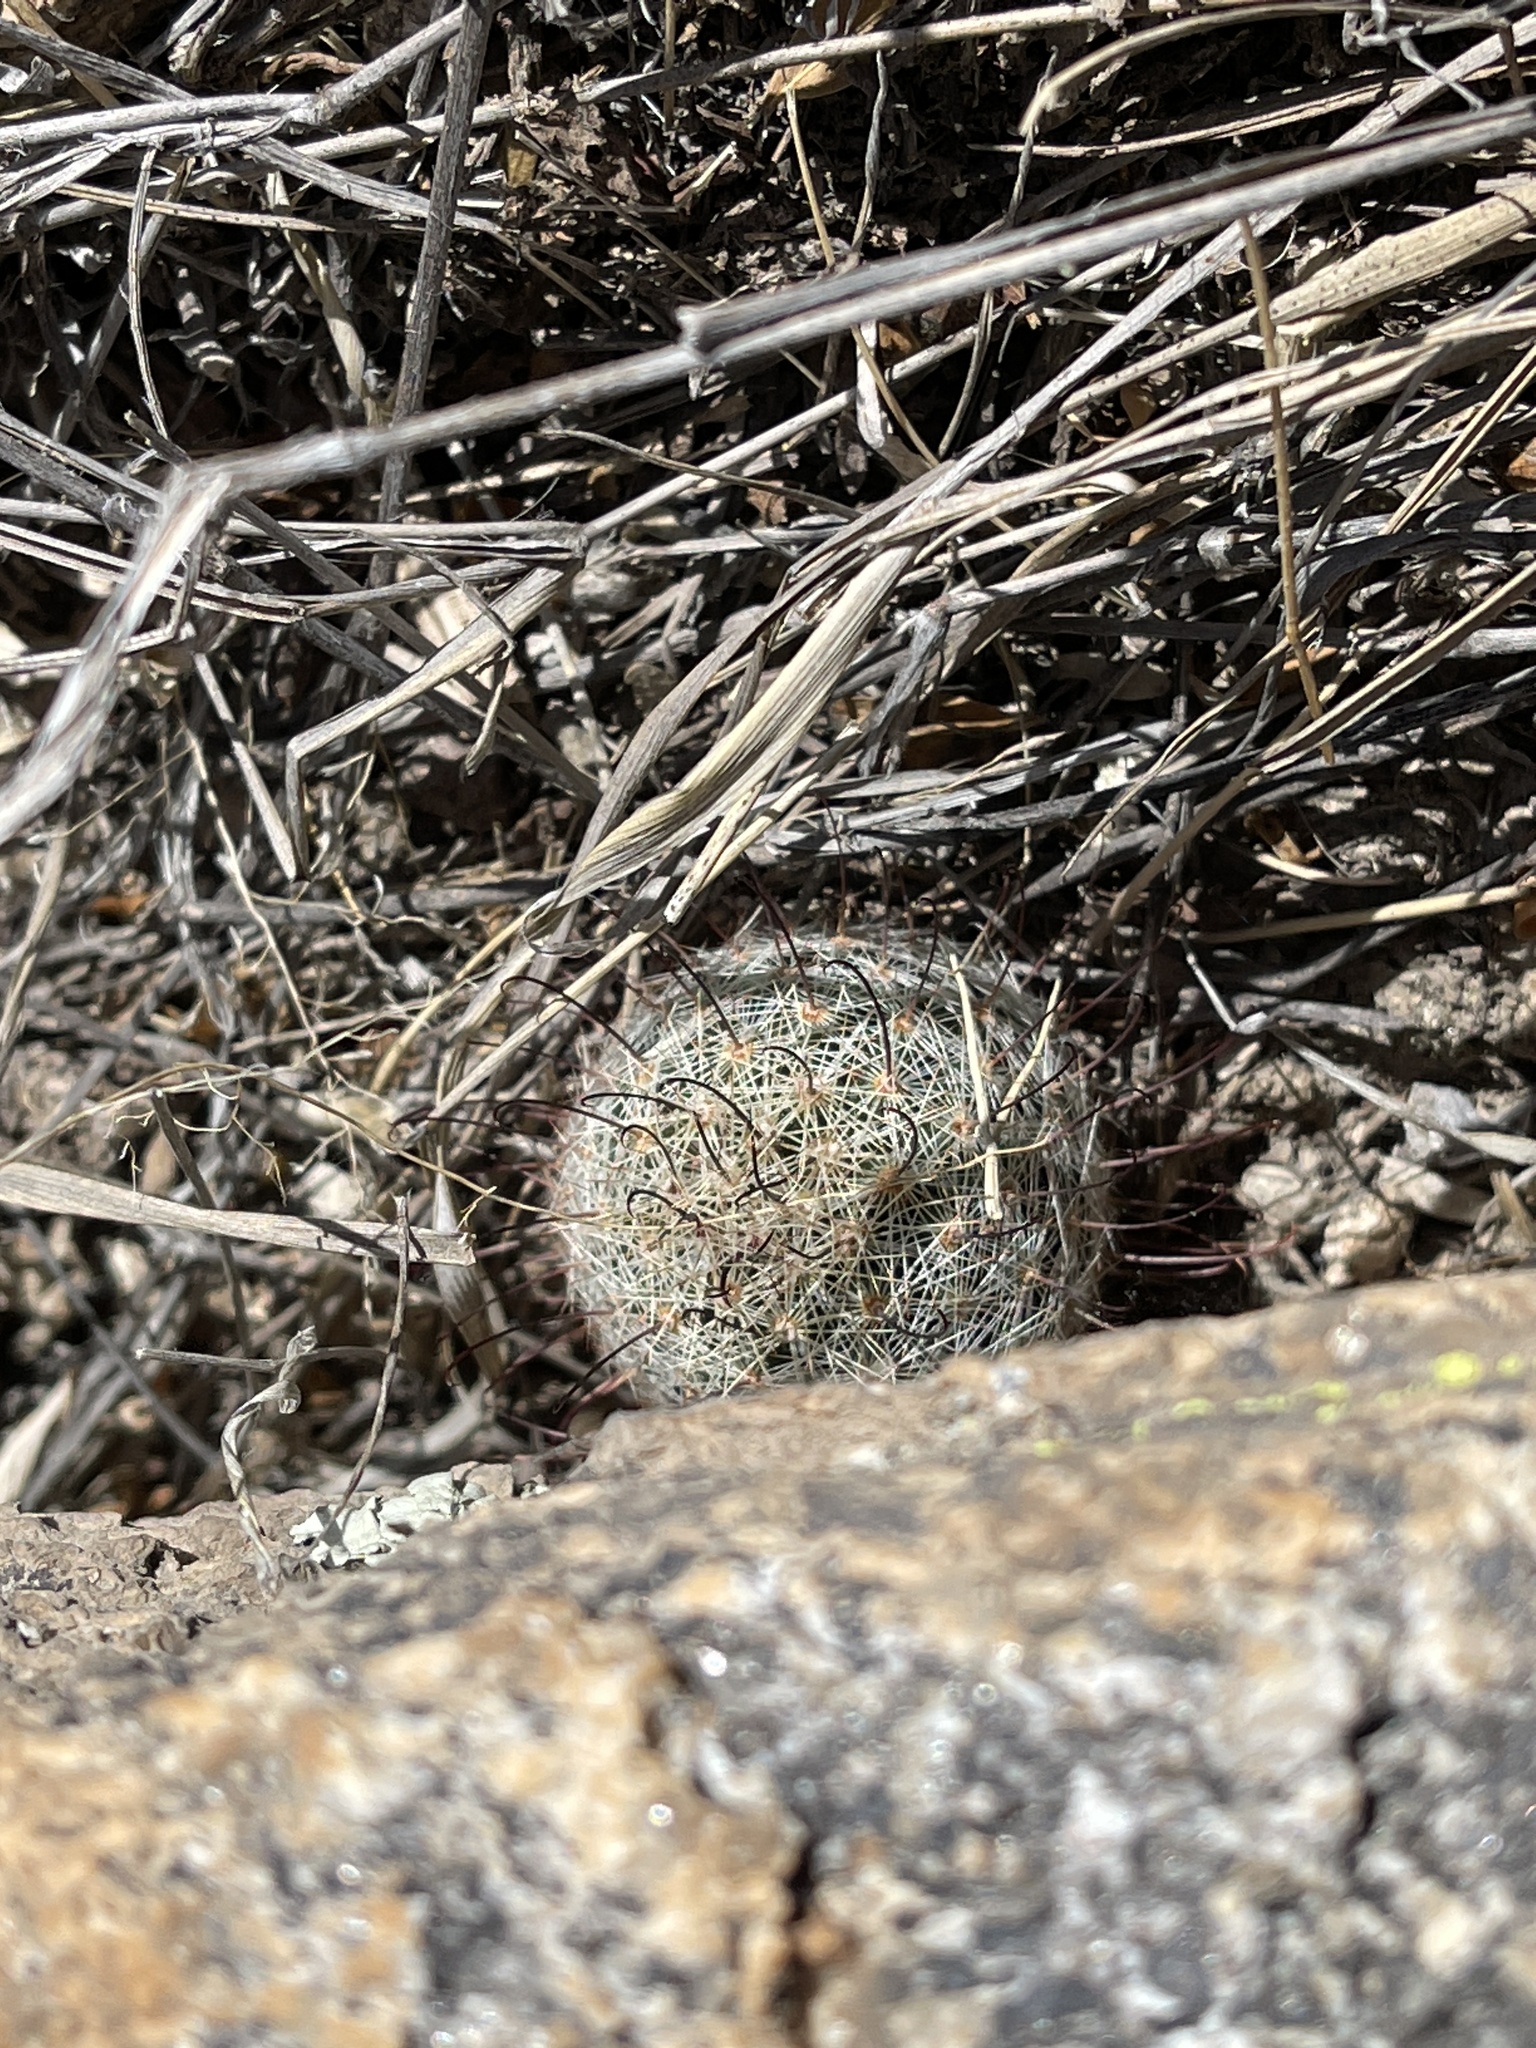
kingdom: Plantae
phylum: Tracheophyta
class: Magnoliopsida
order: Caryophyllales
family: Cactaceae
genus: Cochemiea
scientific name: Cochemiea grahamii
